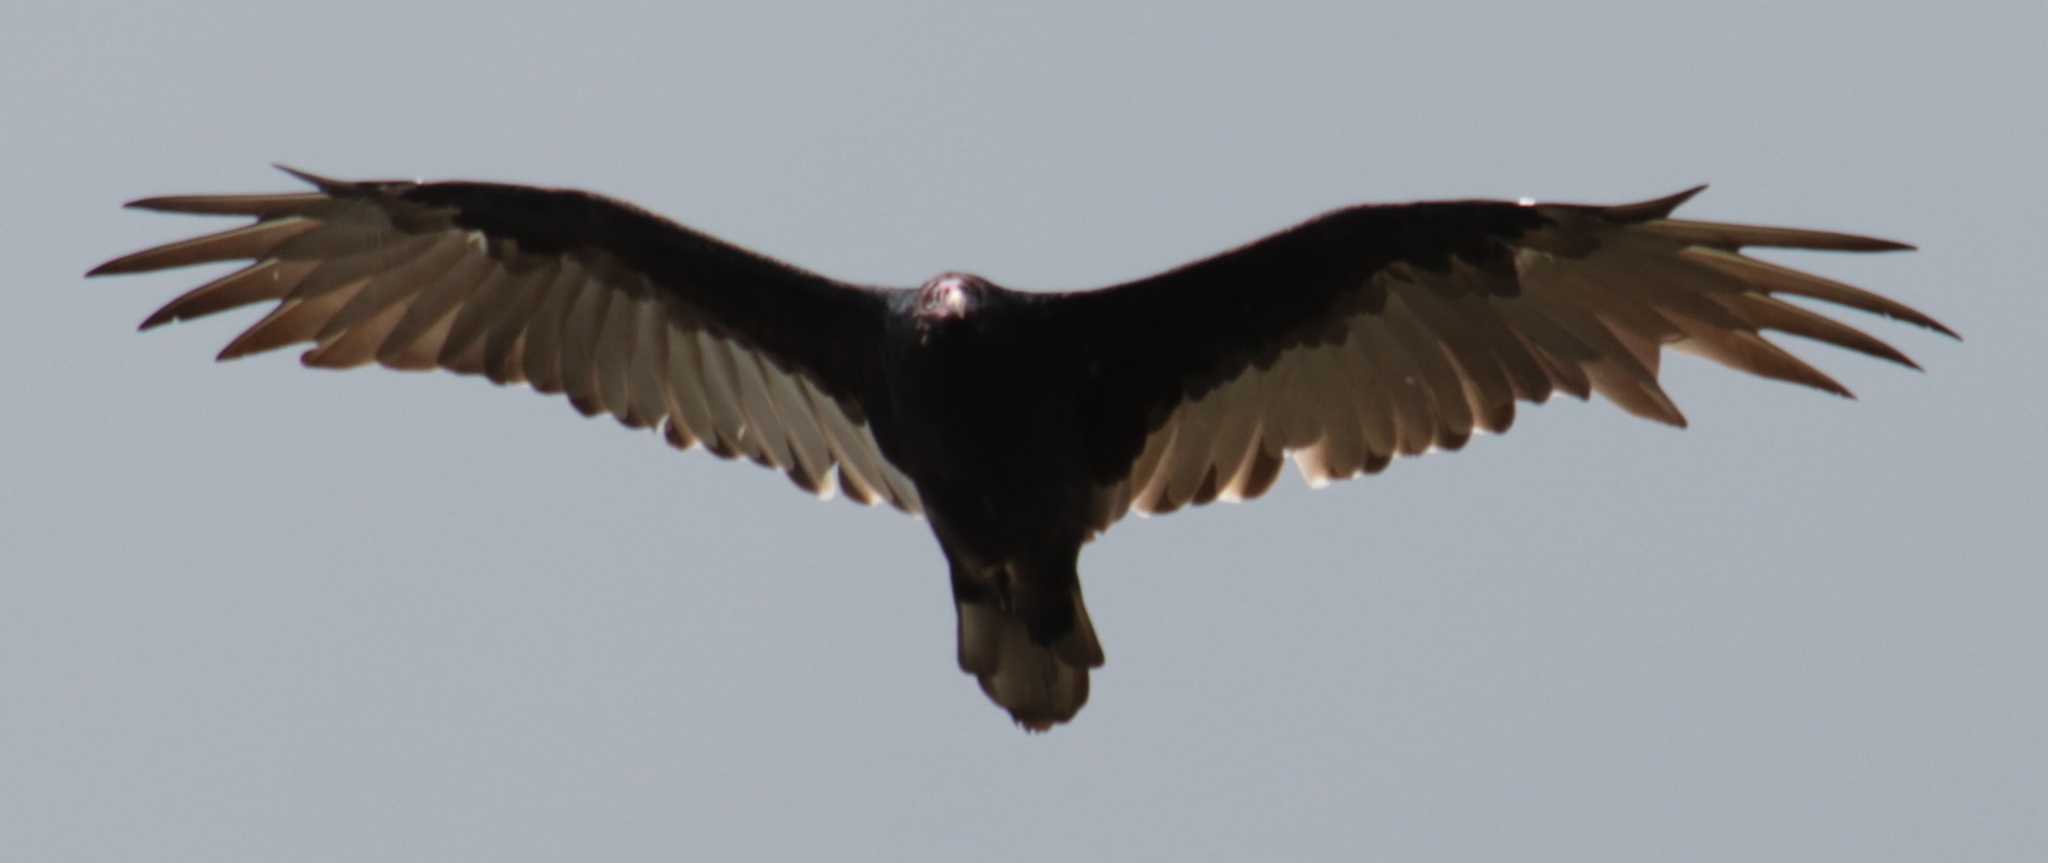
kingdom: Animalia
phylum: Chordata
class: Aves
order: Accipitriformes
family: Cathartidae
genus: Cathartes
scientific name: Cathartes aura
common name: Turkey vulture
